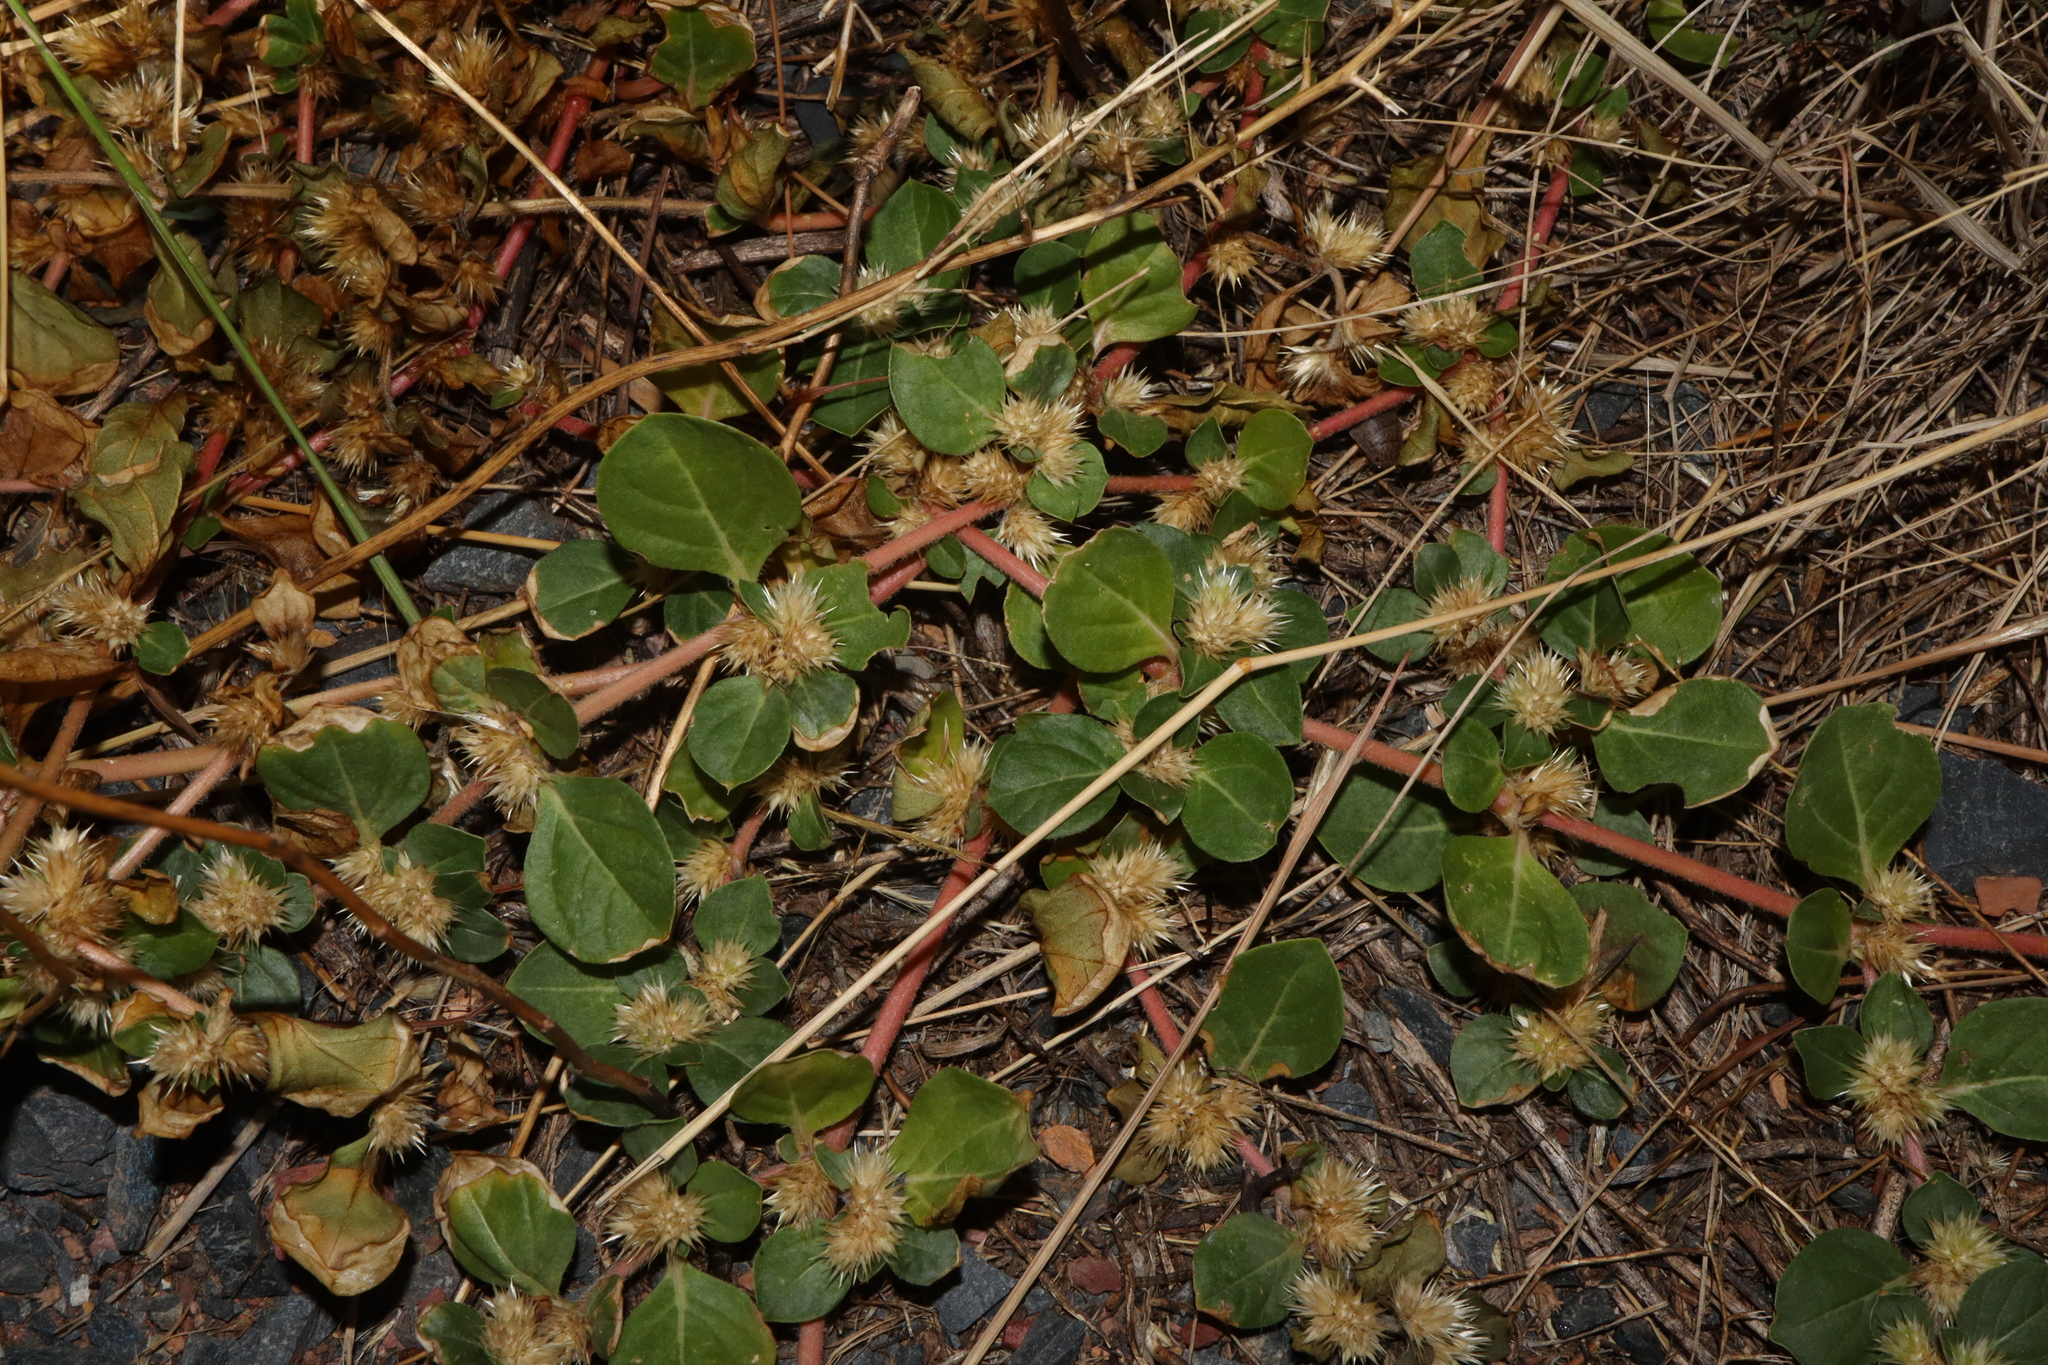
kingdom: Plantae
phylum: Tracheophyta
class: Magnoliopsida
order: Caryophyllales
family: Amaranthaceae
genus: Alternanthera
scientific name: Alternanthera pungens
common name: Khakiweed
